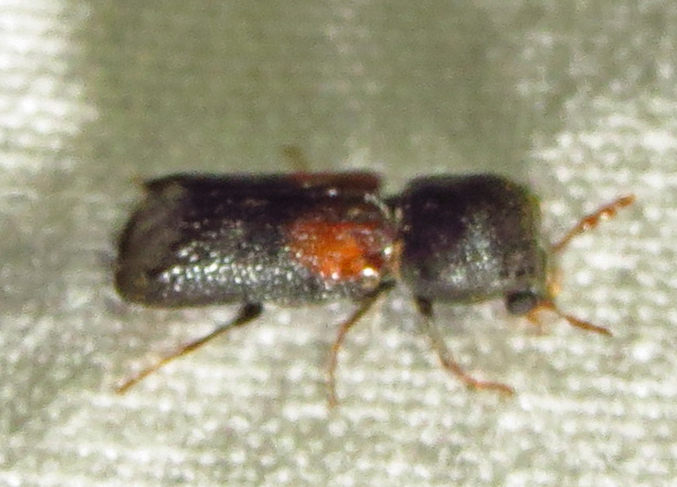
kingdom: Animalia
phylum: Arthropoda
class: Insecta
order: Coleoptera
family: Bostrichidae
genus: Xylobiops
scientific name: Xylobiops basilaris
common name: Red-shouldered bostrichid
